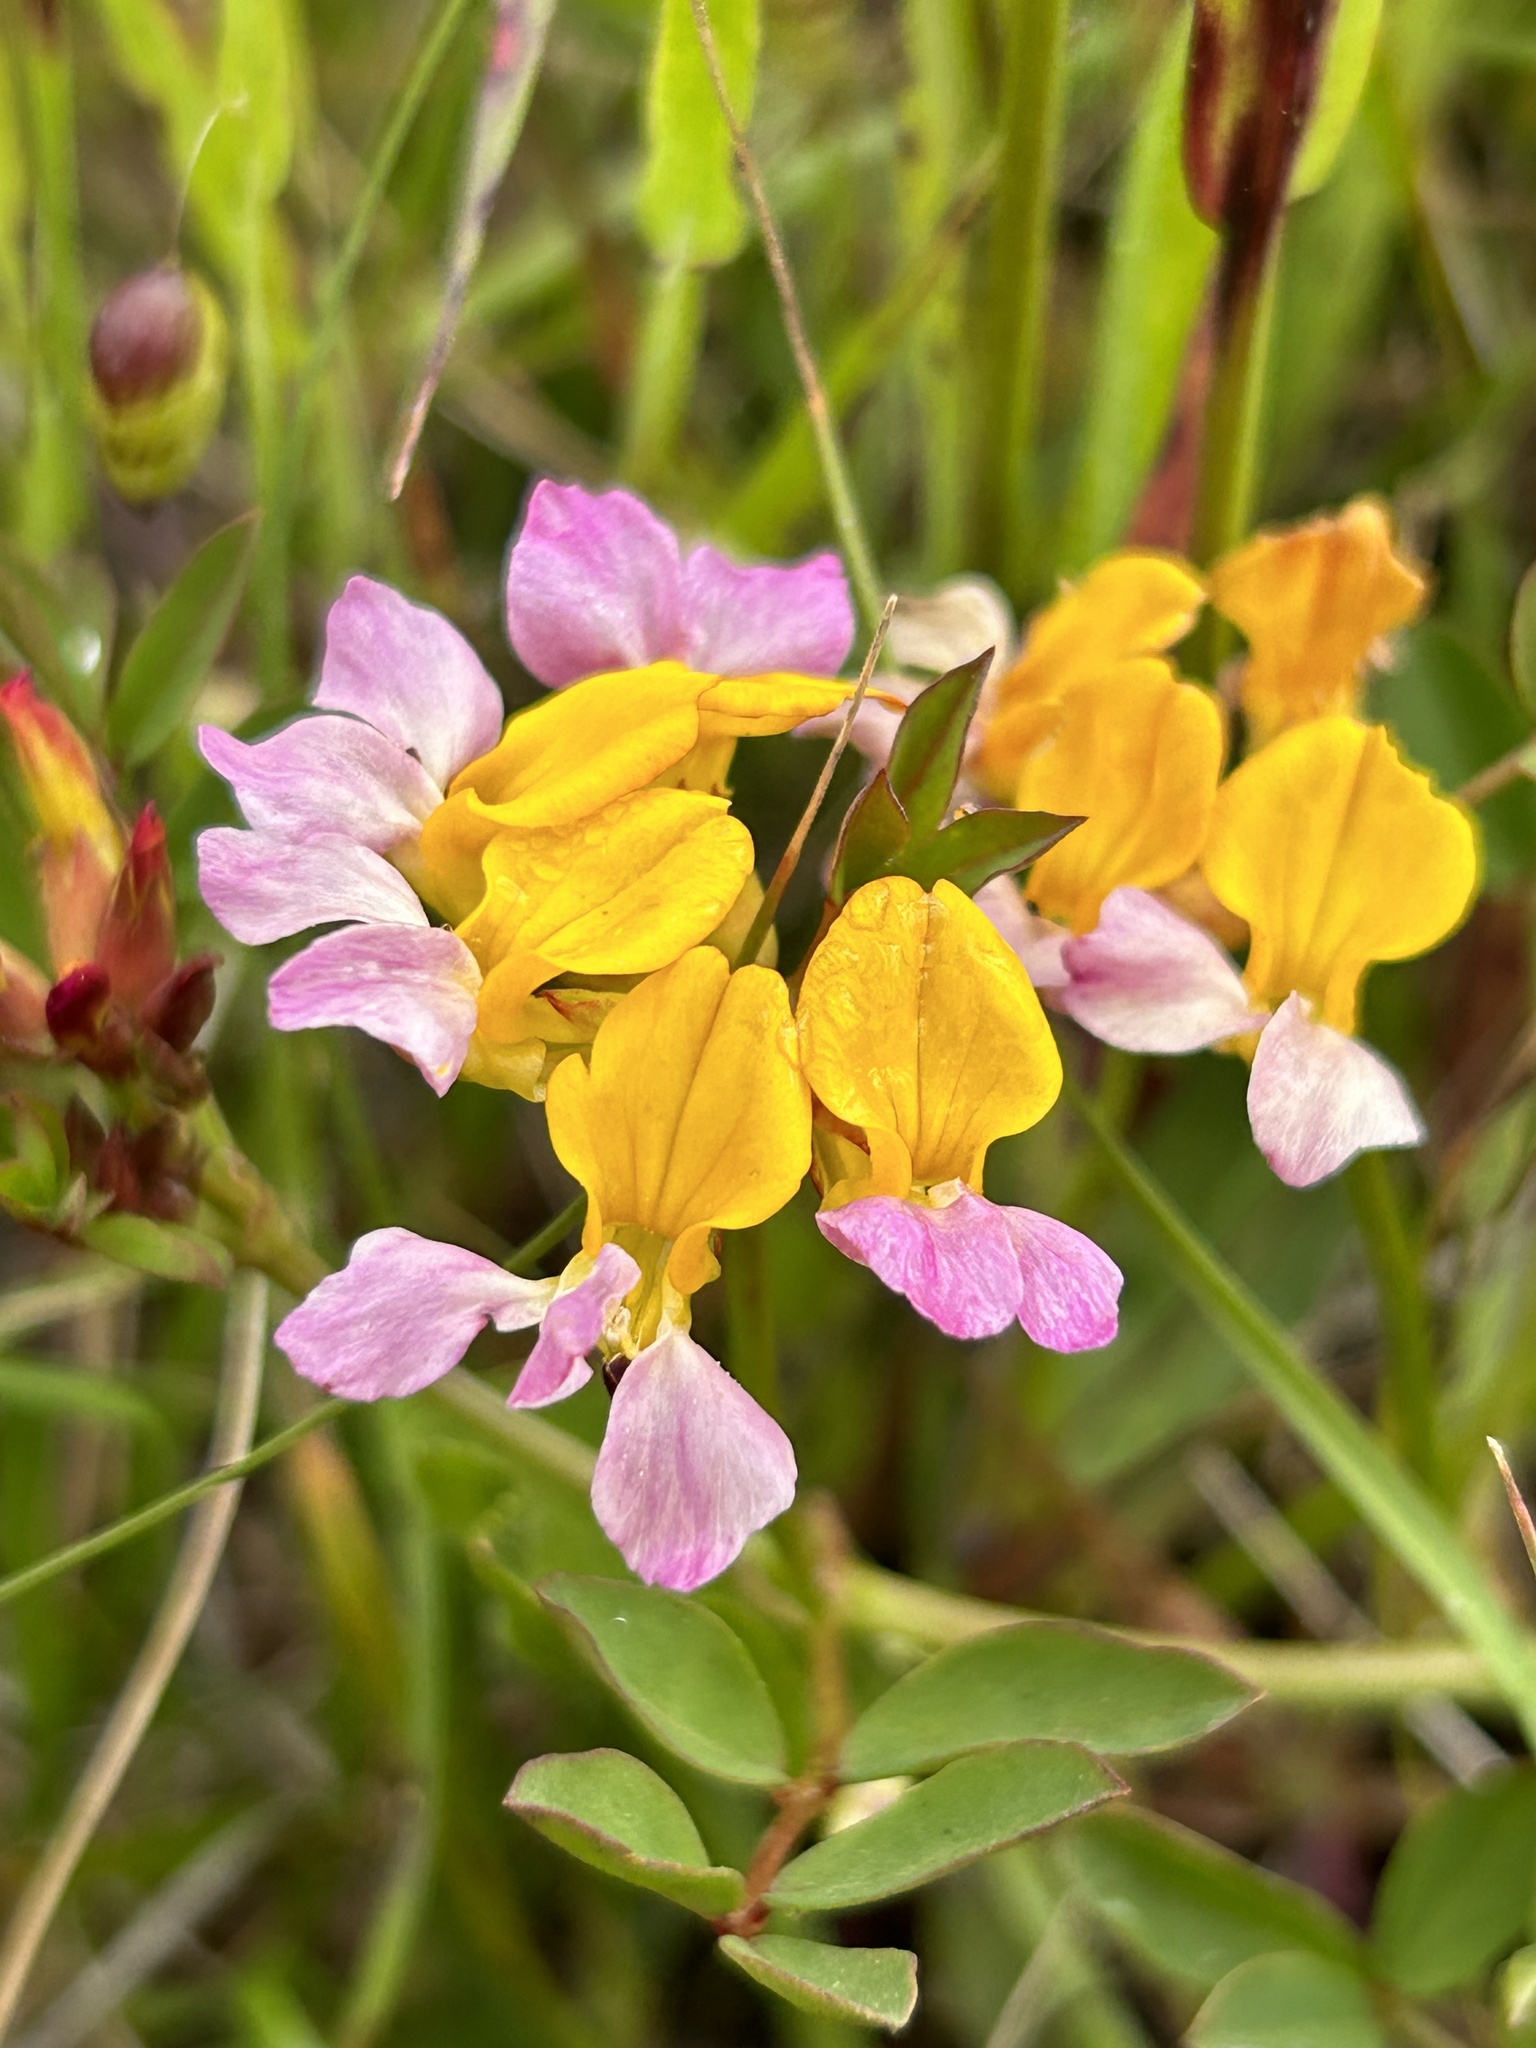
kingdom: Plantae
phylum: Tracheophyta
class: Magnoliopsida
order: Fabales
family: Fabaceae
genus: Hosackia
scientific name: Hosackia gracilis
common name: Seaside bird's-foot lotus
